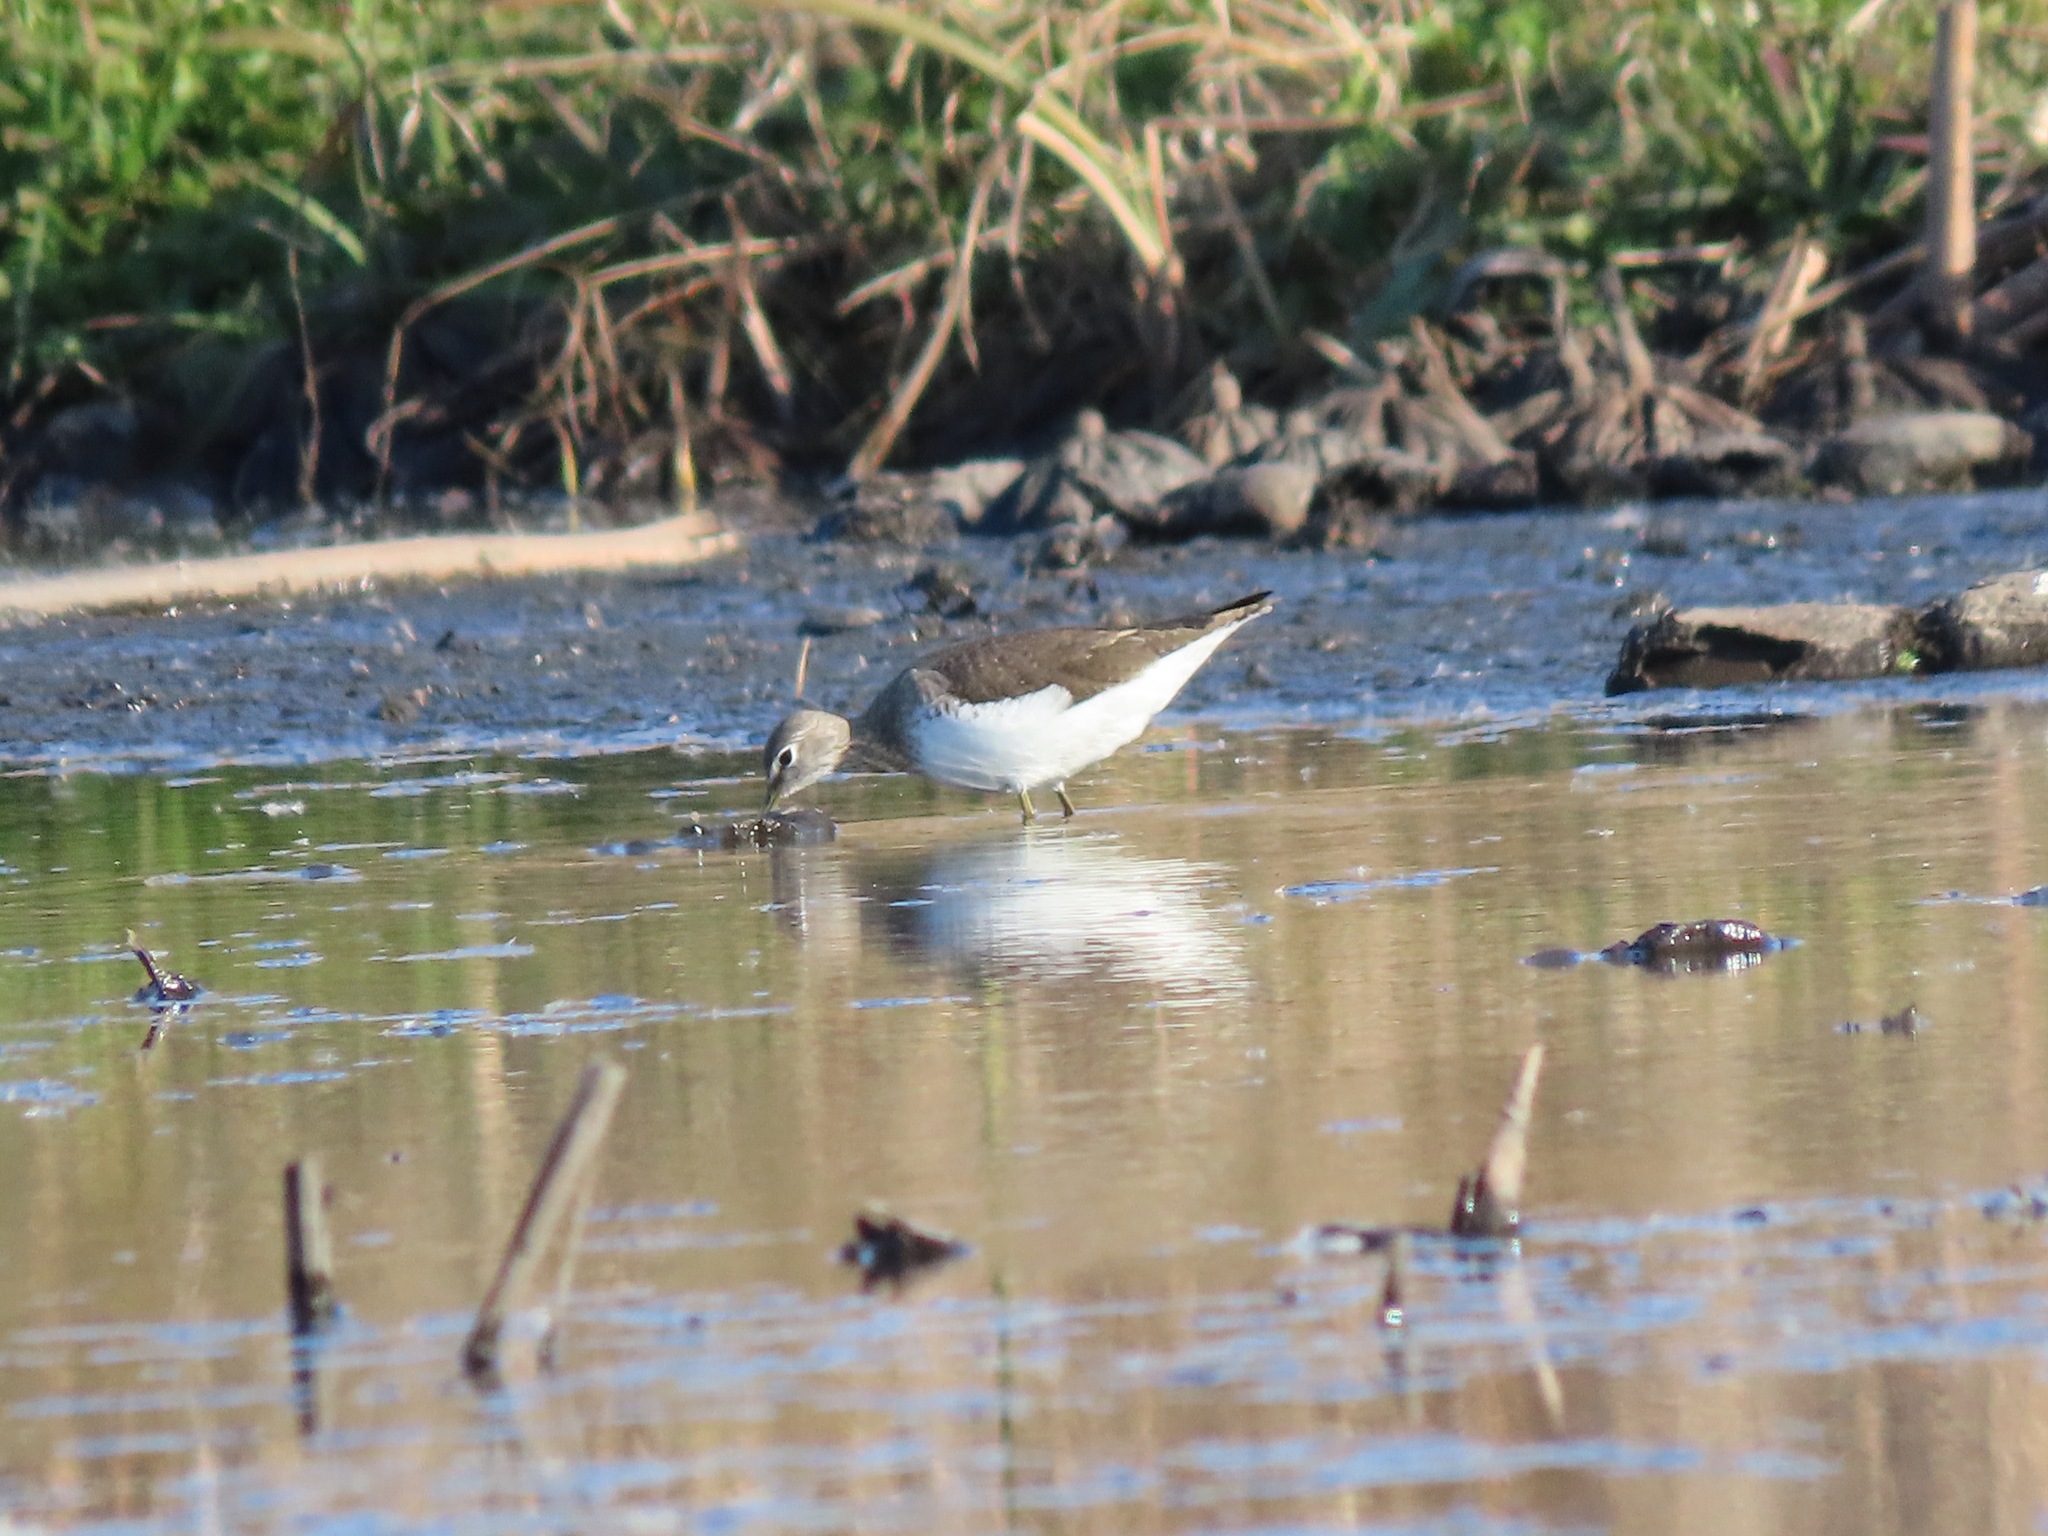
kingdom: Animalia
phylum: Chordata
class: Aves
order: Charadriiformes
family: Scolopacidae
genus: Tringa
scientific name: Tringa ochropus
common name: Green sandpiper
